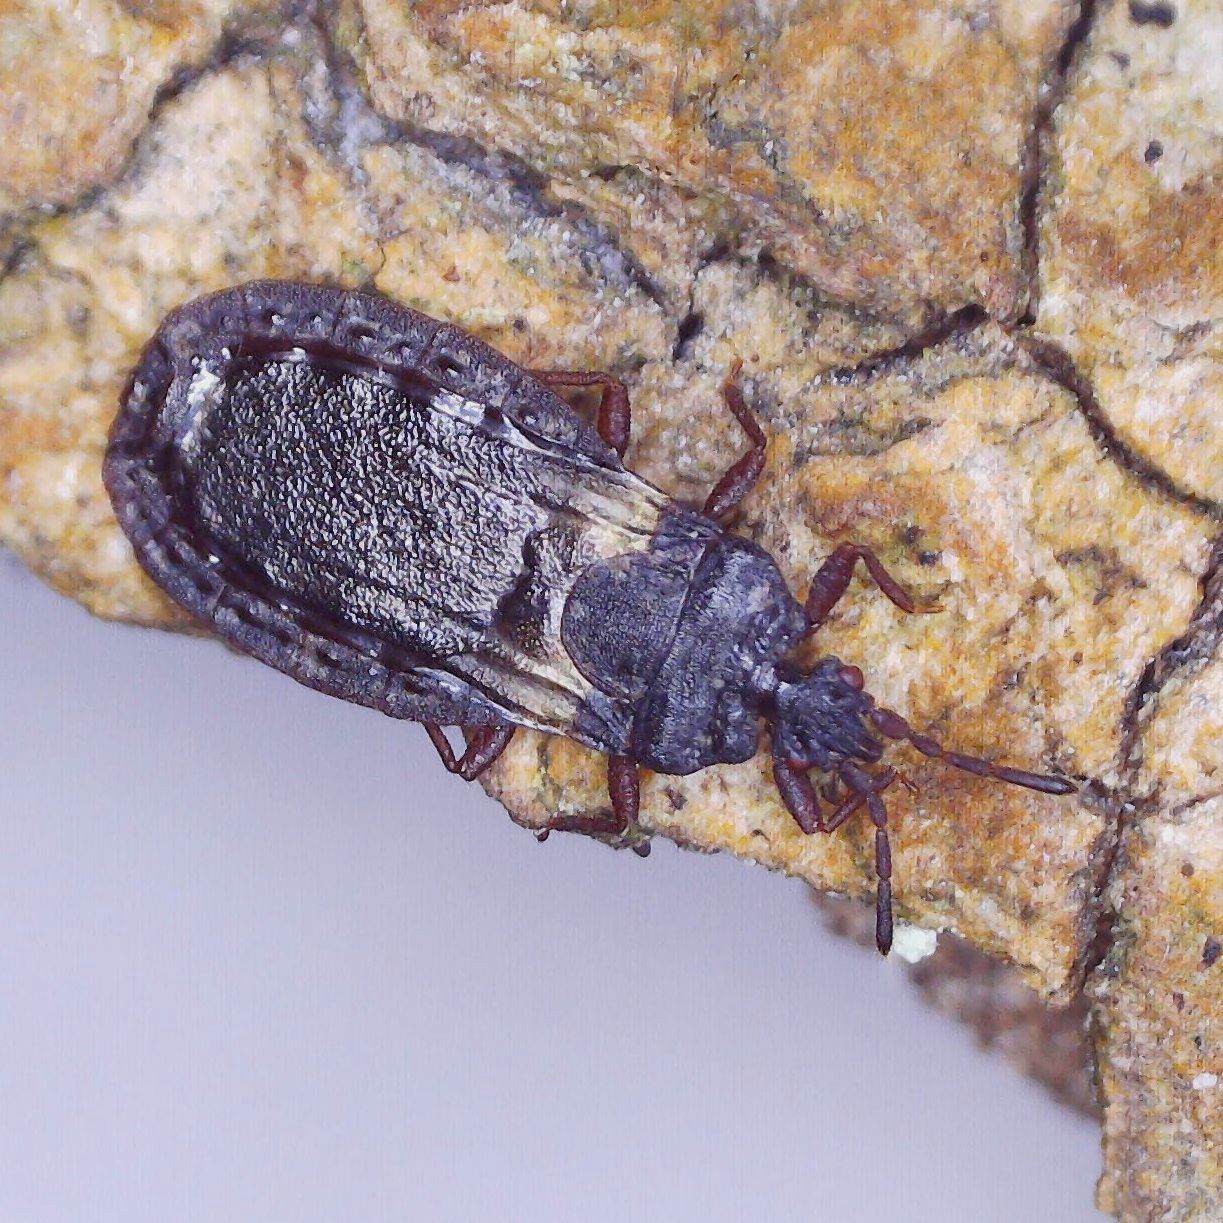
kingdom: Animalia
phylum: Arthropoda
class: Insecta
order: Hemiptera
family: Aradidae
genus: Aneurus
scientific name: Aneurus avenius
